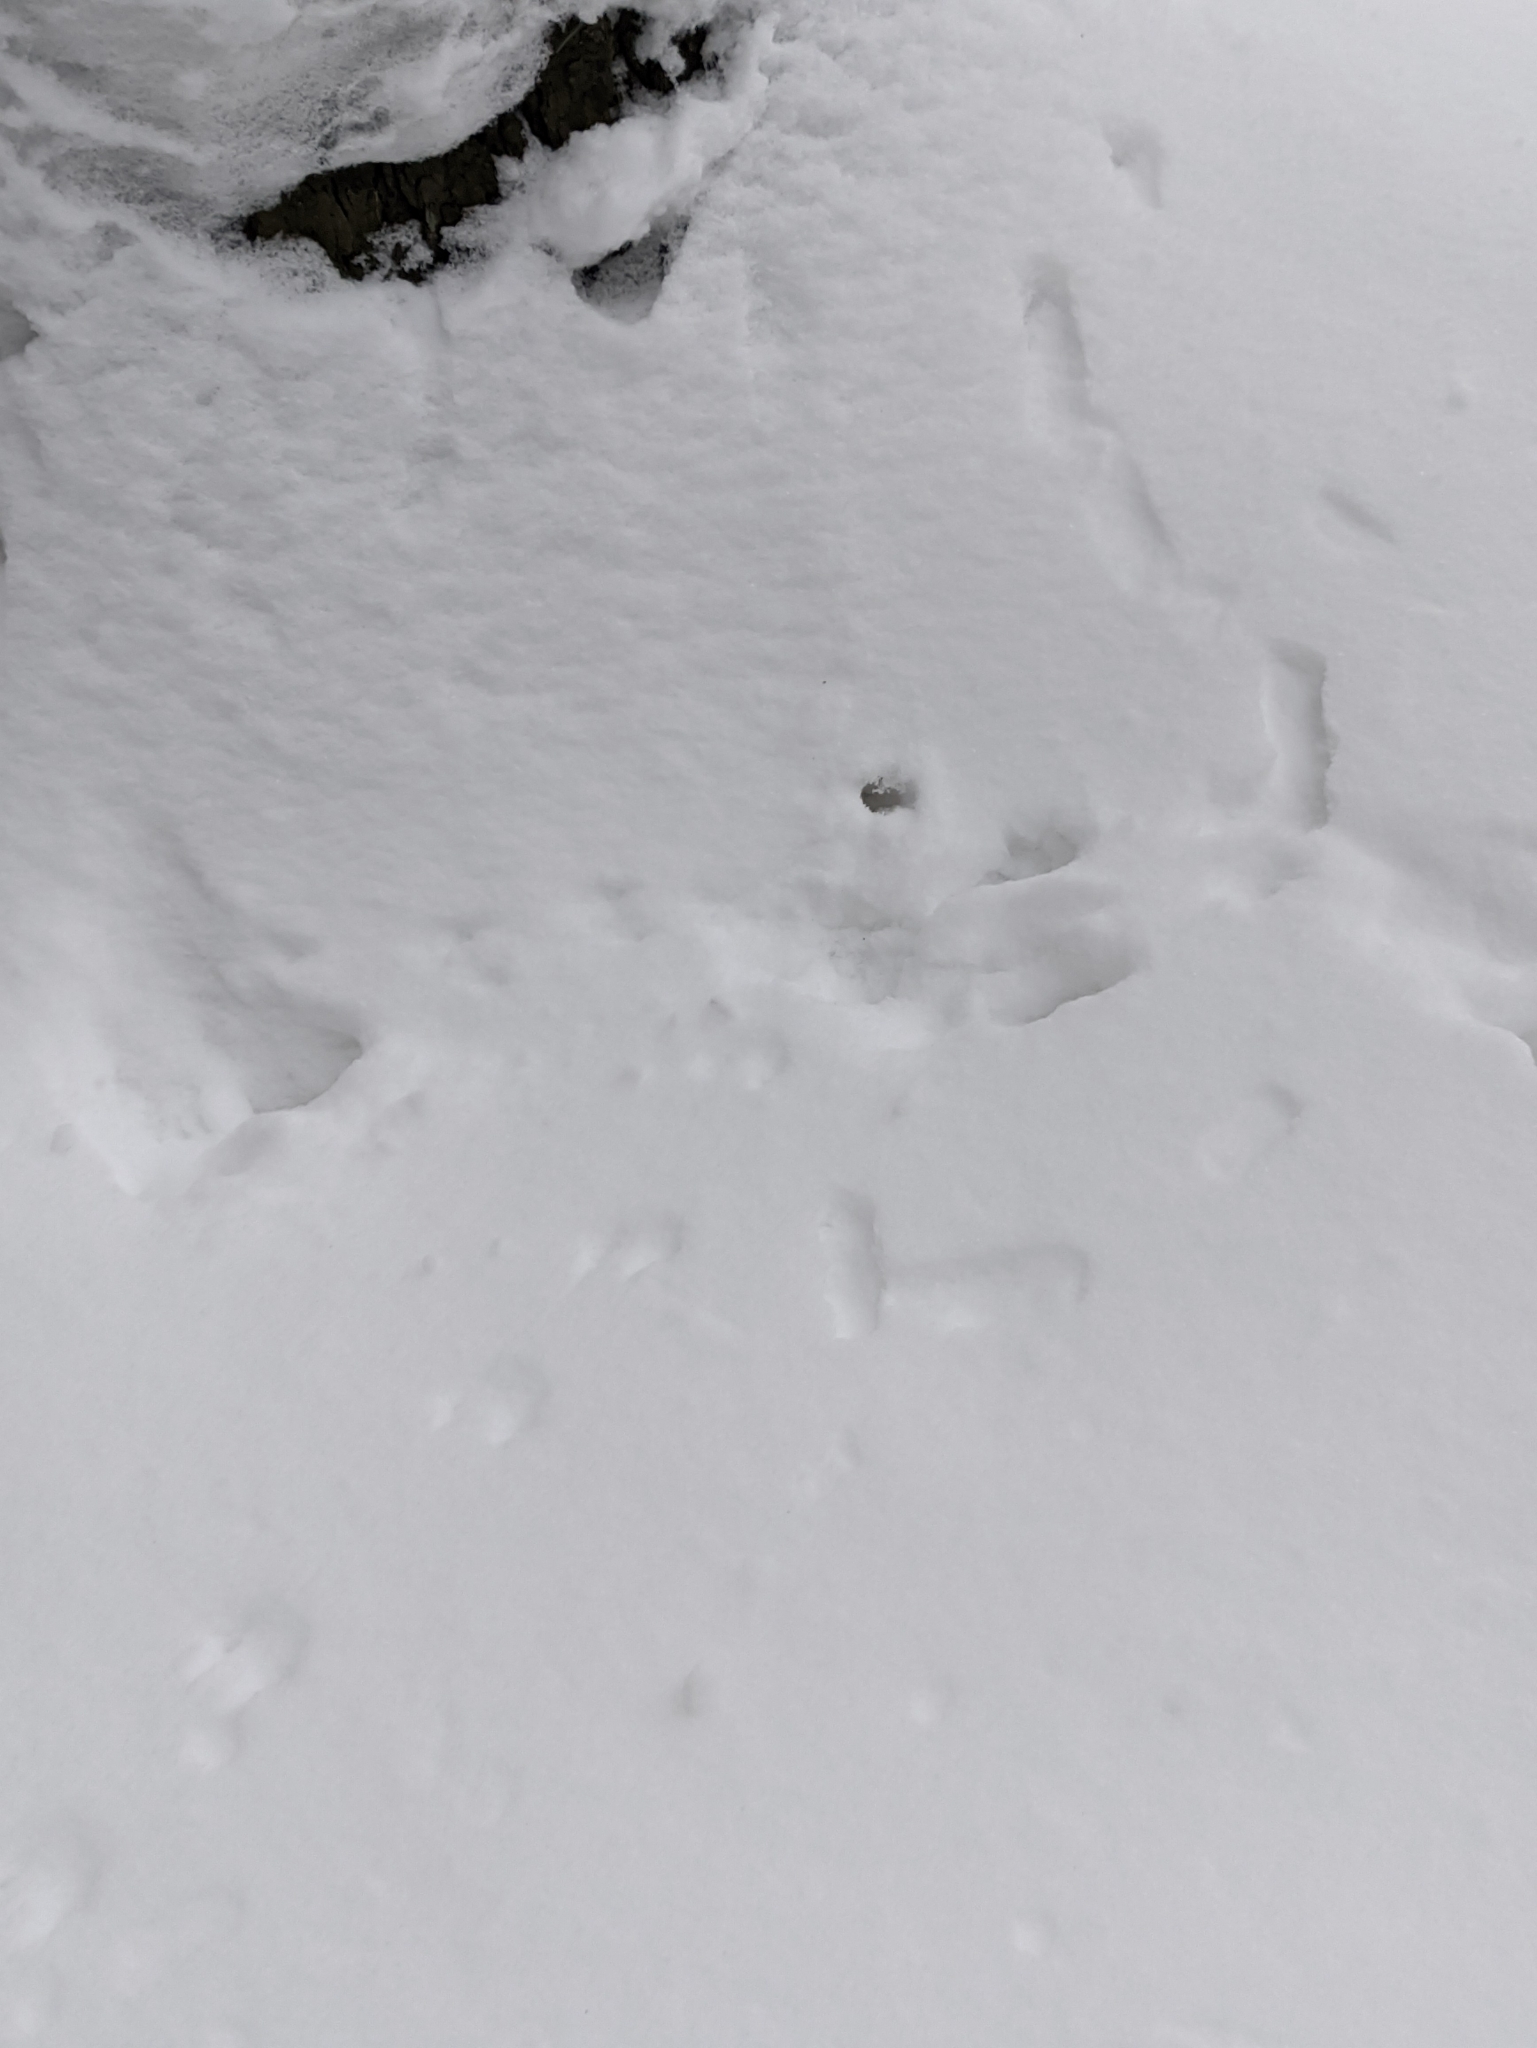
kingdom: Animalia
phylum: Chordata
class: Mammalia
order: Rodentia
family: Sciuridae
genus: Sciurus
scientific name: Sciurus vulgaris
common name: Eurasian red squirrel
